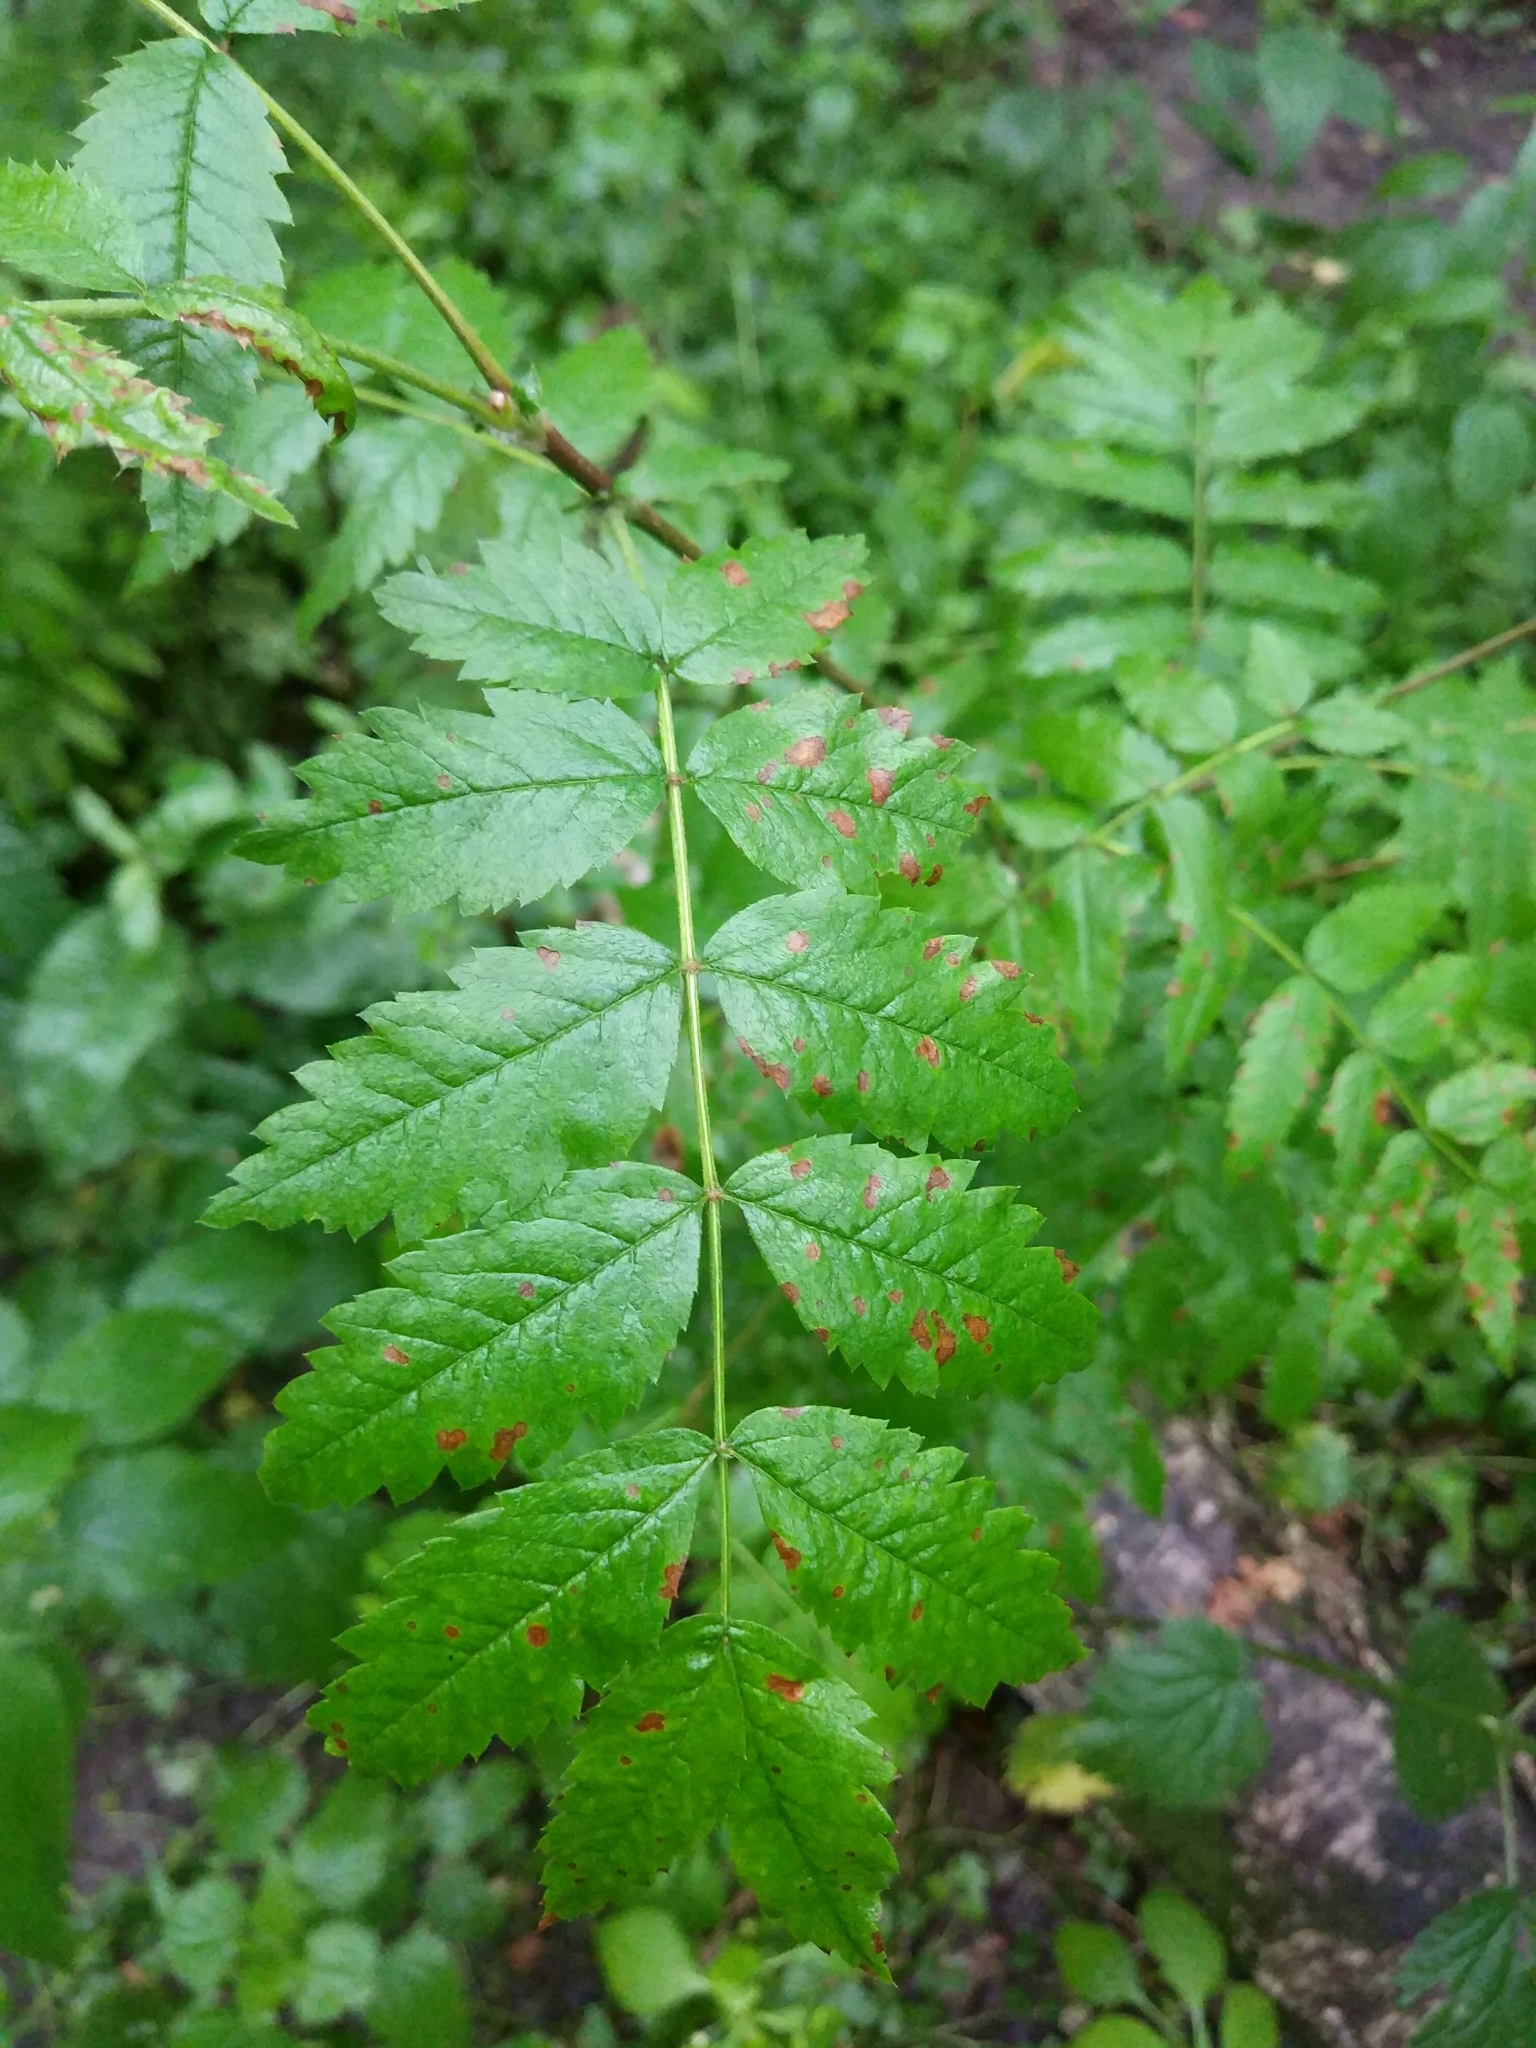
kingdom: Plantae
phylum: Tracheophyta
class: Magnoliopsida
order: Rosales
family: Rosaceae
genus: Sorbus
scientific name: Sorbus aucuparia
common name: Rowan
